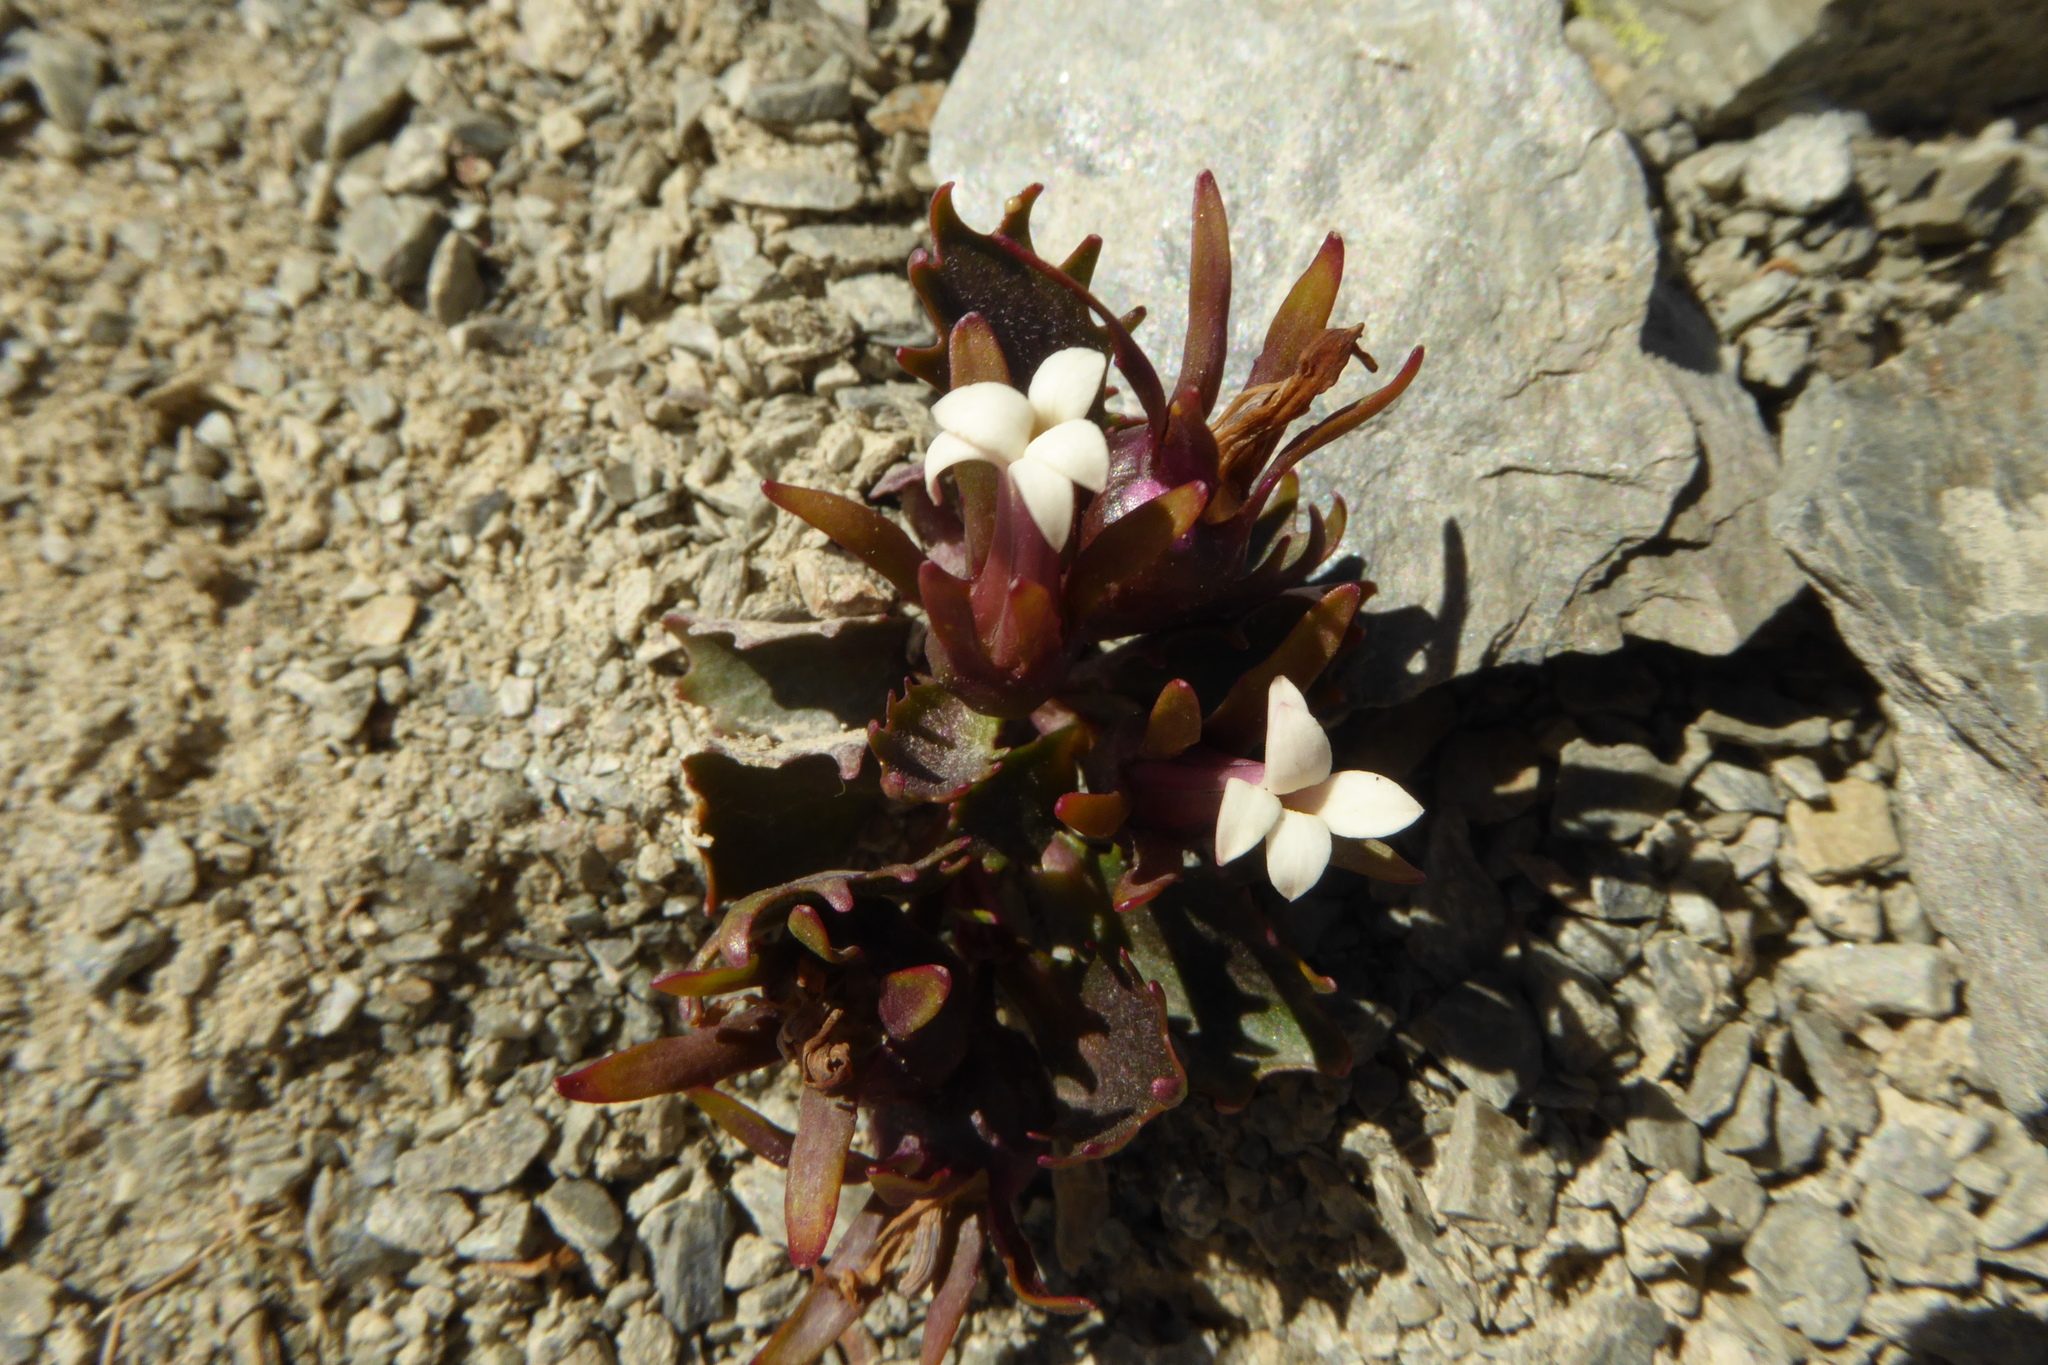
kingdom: Plantae
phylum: Tracheophyta
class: Magnoliopsida
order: Asterales
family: Campanulaceae
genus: Lobelia
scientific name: Lobelia roughii
